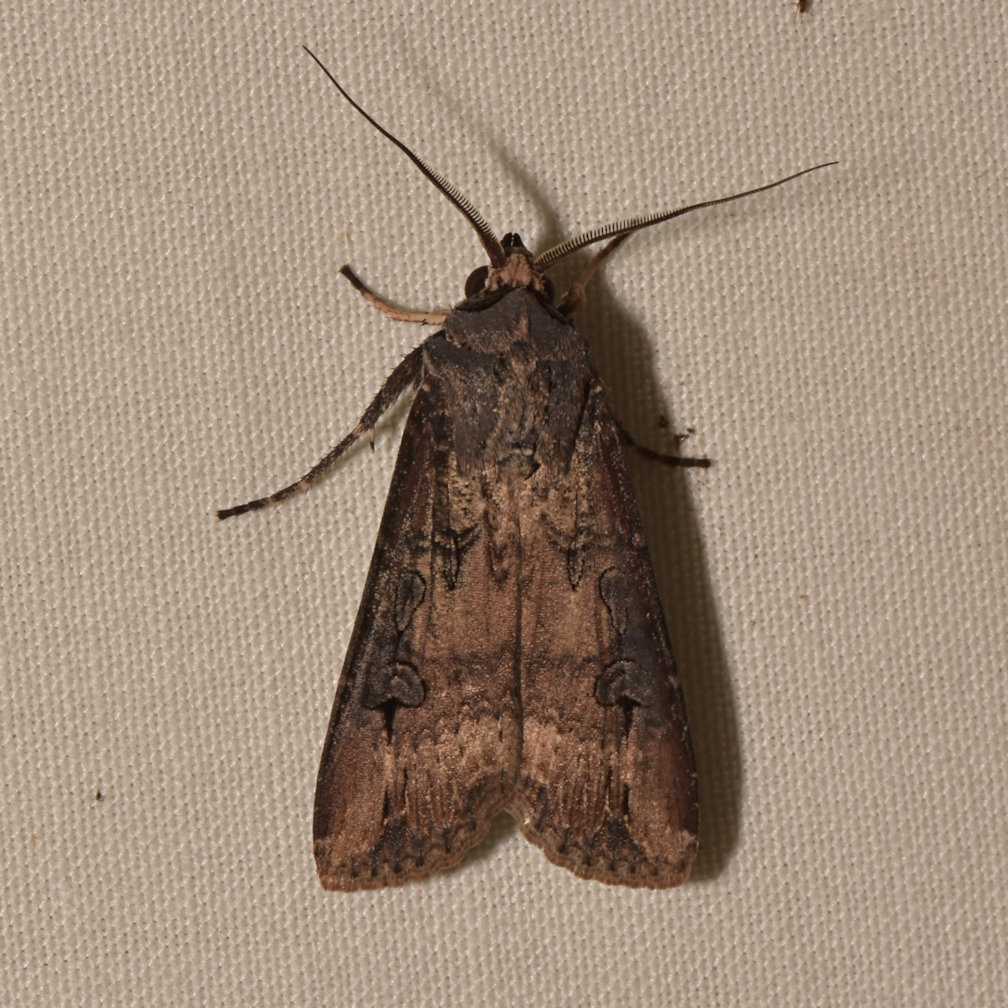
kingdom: Animalia
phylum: Arthropoda
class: Insecta
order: Lepidoptera
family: Noctuidae
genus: Agrotis
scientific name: Agrotis ipsilon
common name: Dark sword-grass
